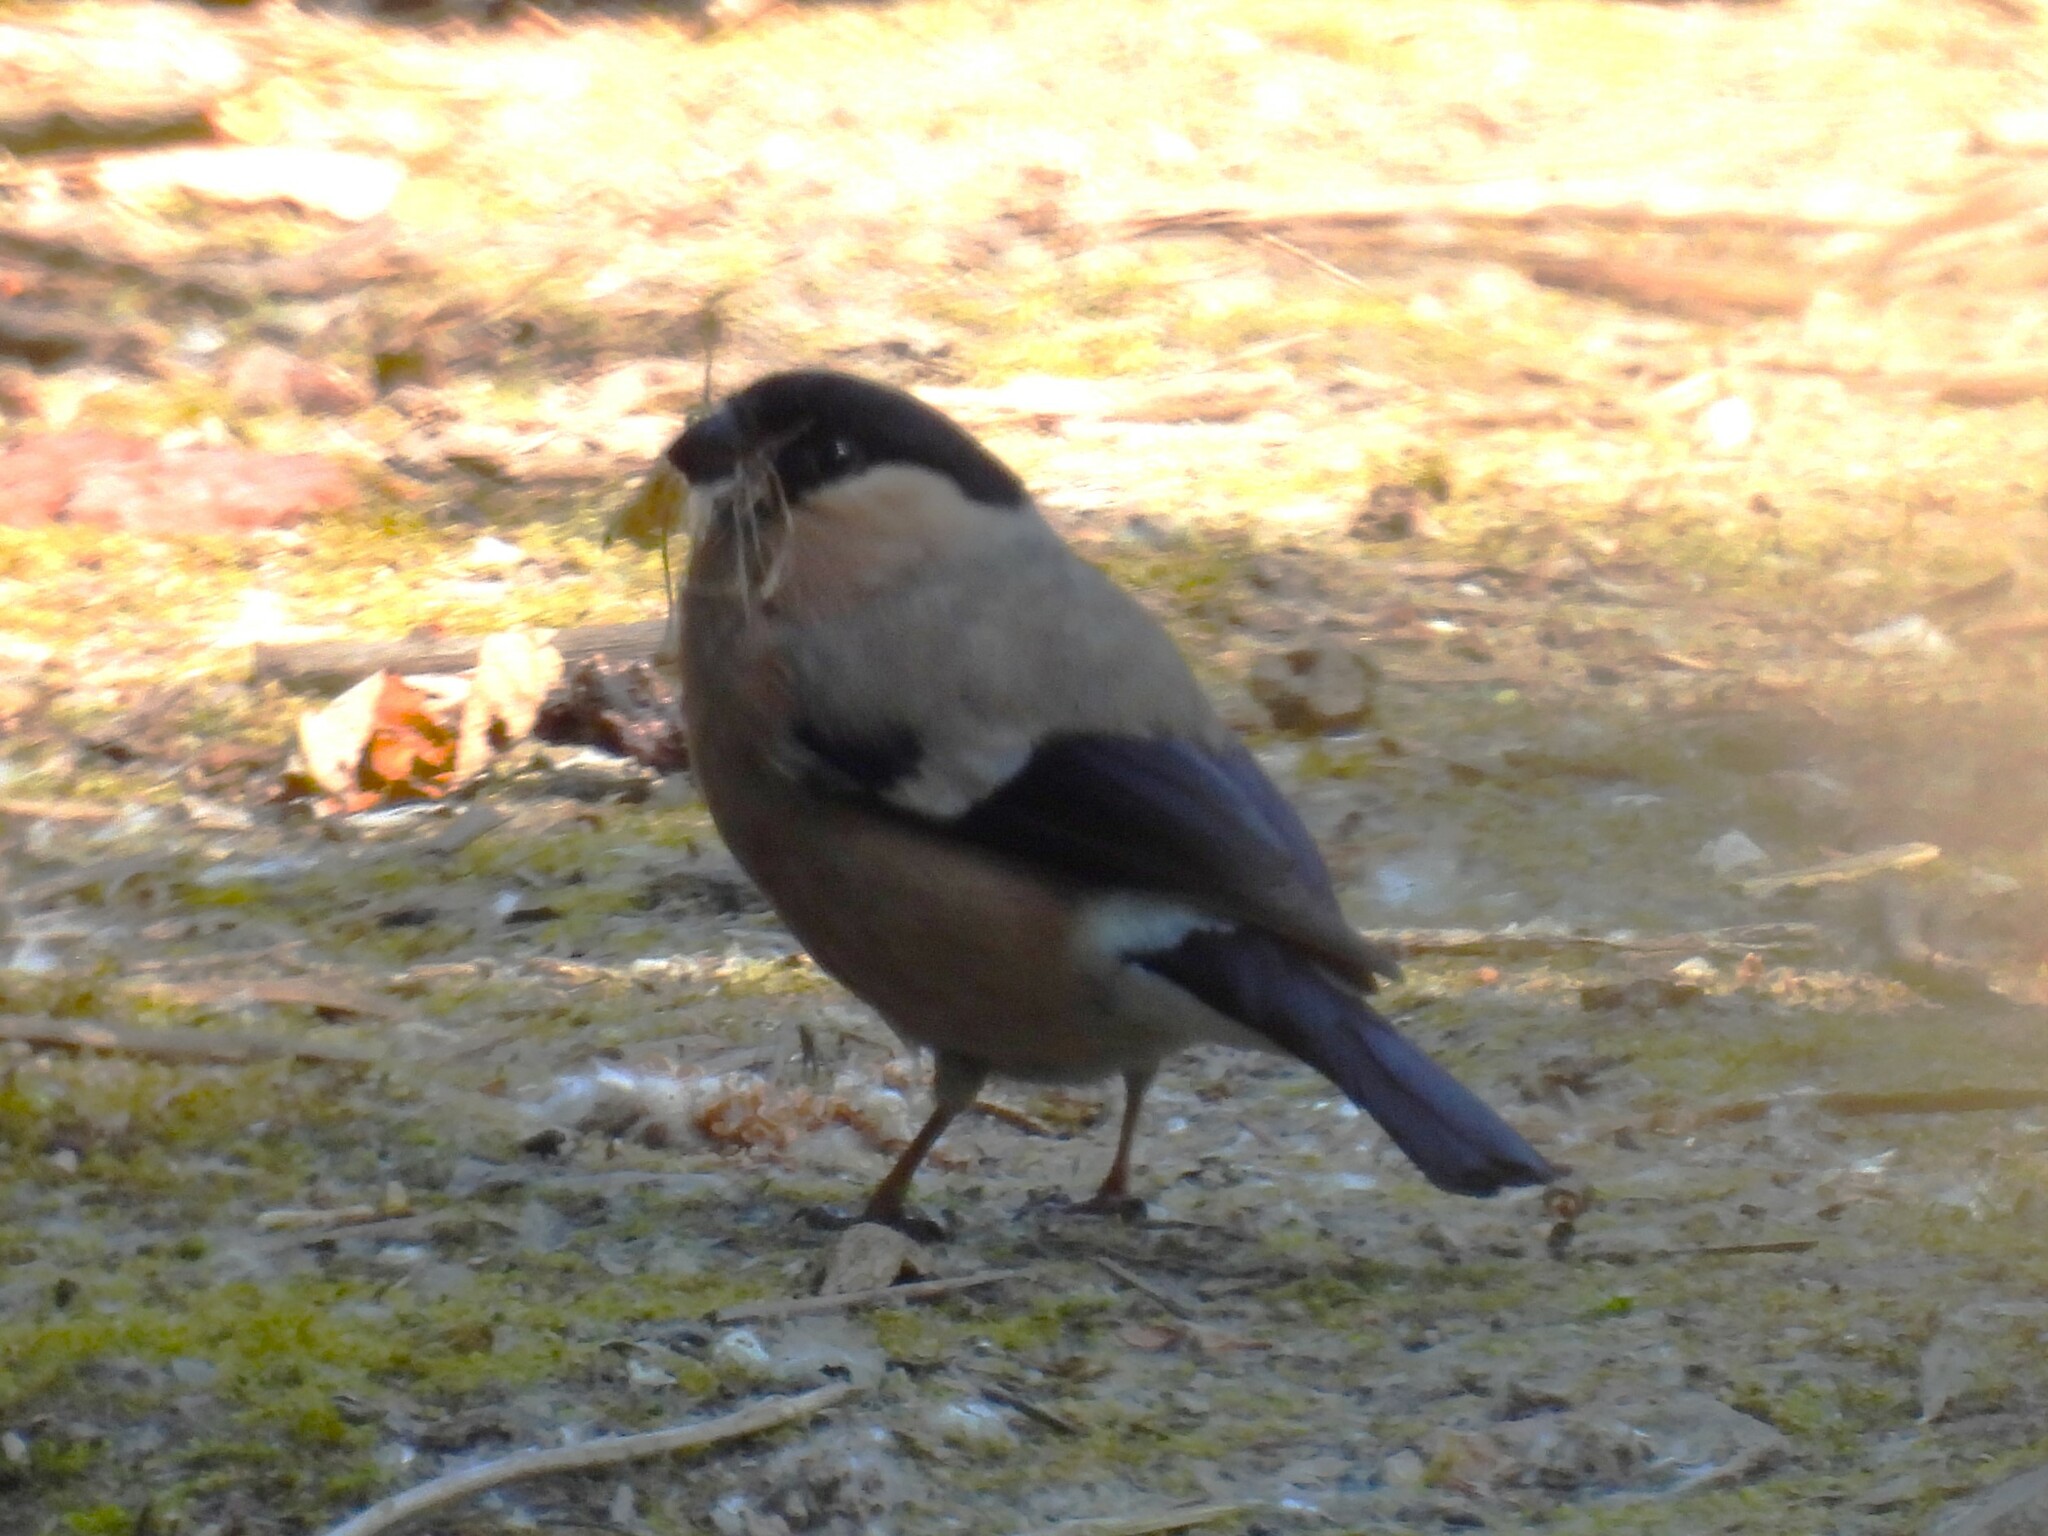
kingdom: Animalia
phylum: Chordata
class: Aves
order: Passeriformes
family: Fringillidae
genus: Pyrrhula
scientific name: Pyrrhula pyrrhula
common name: Eurasian bullfinch
